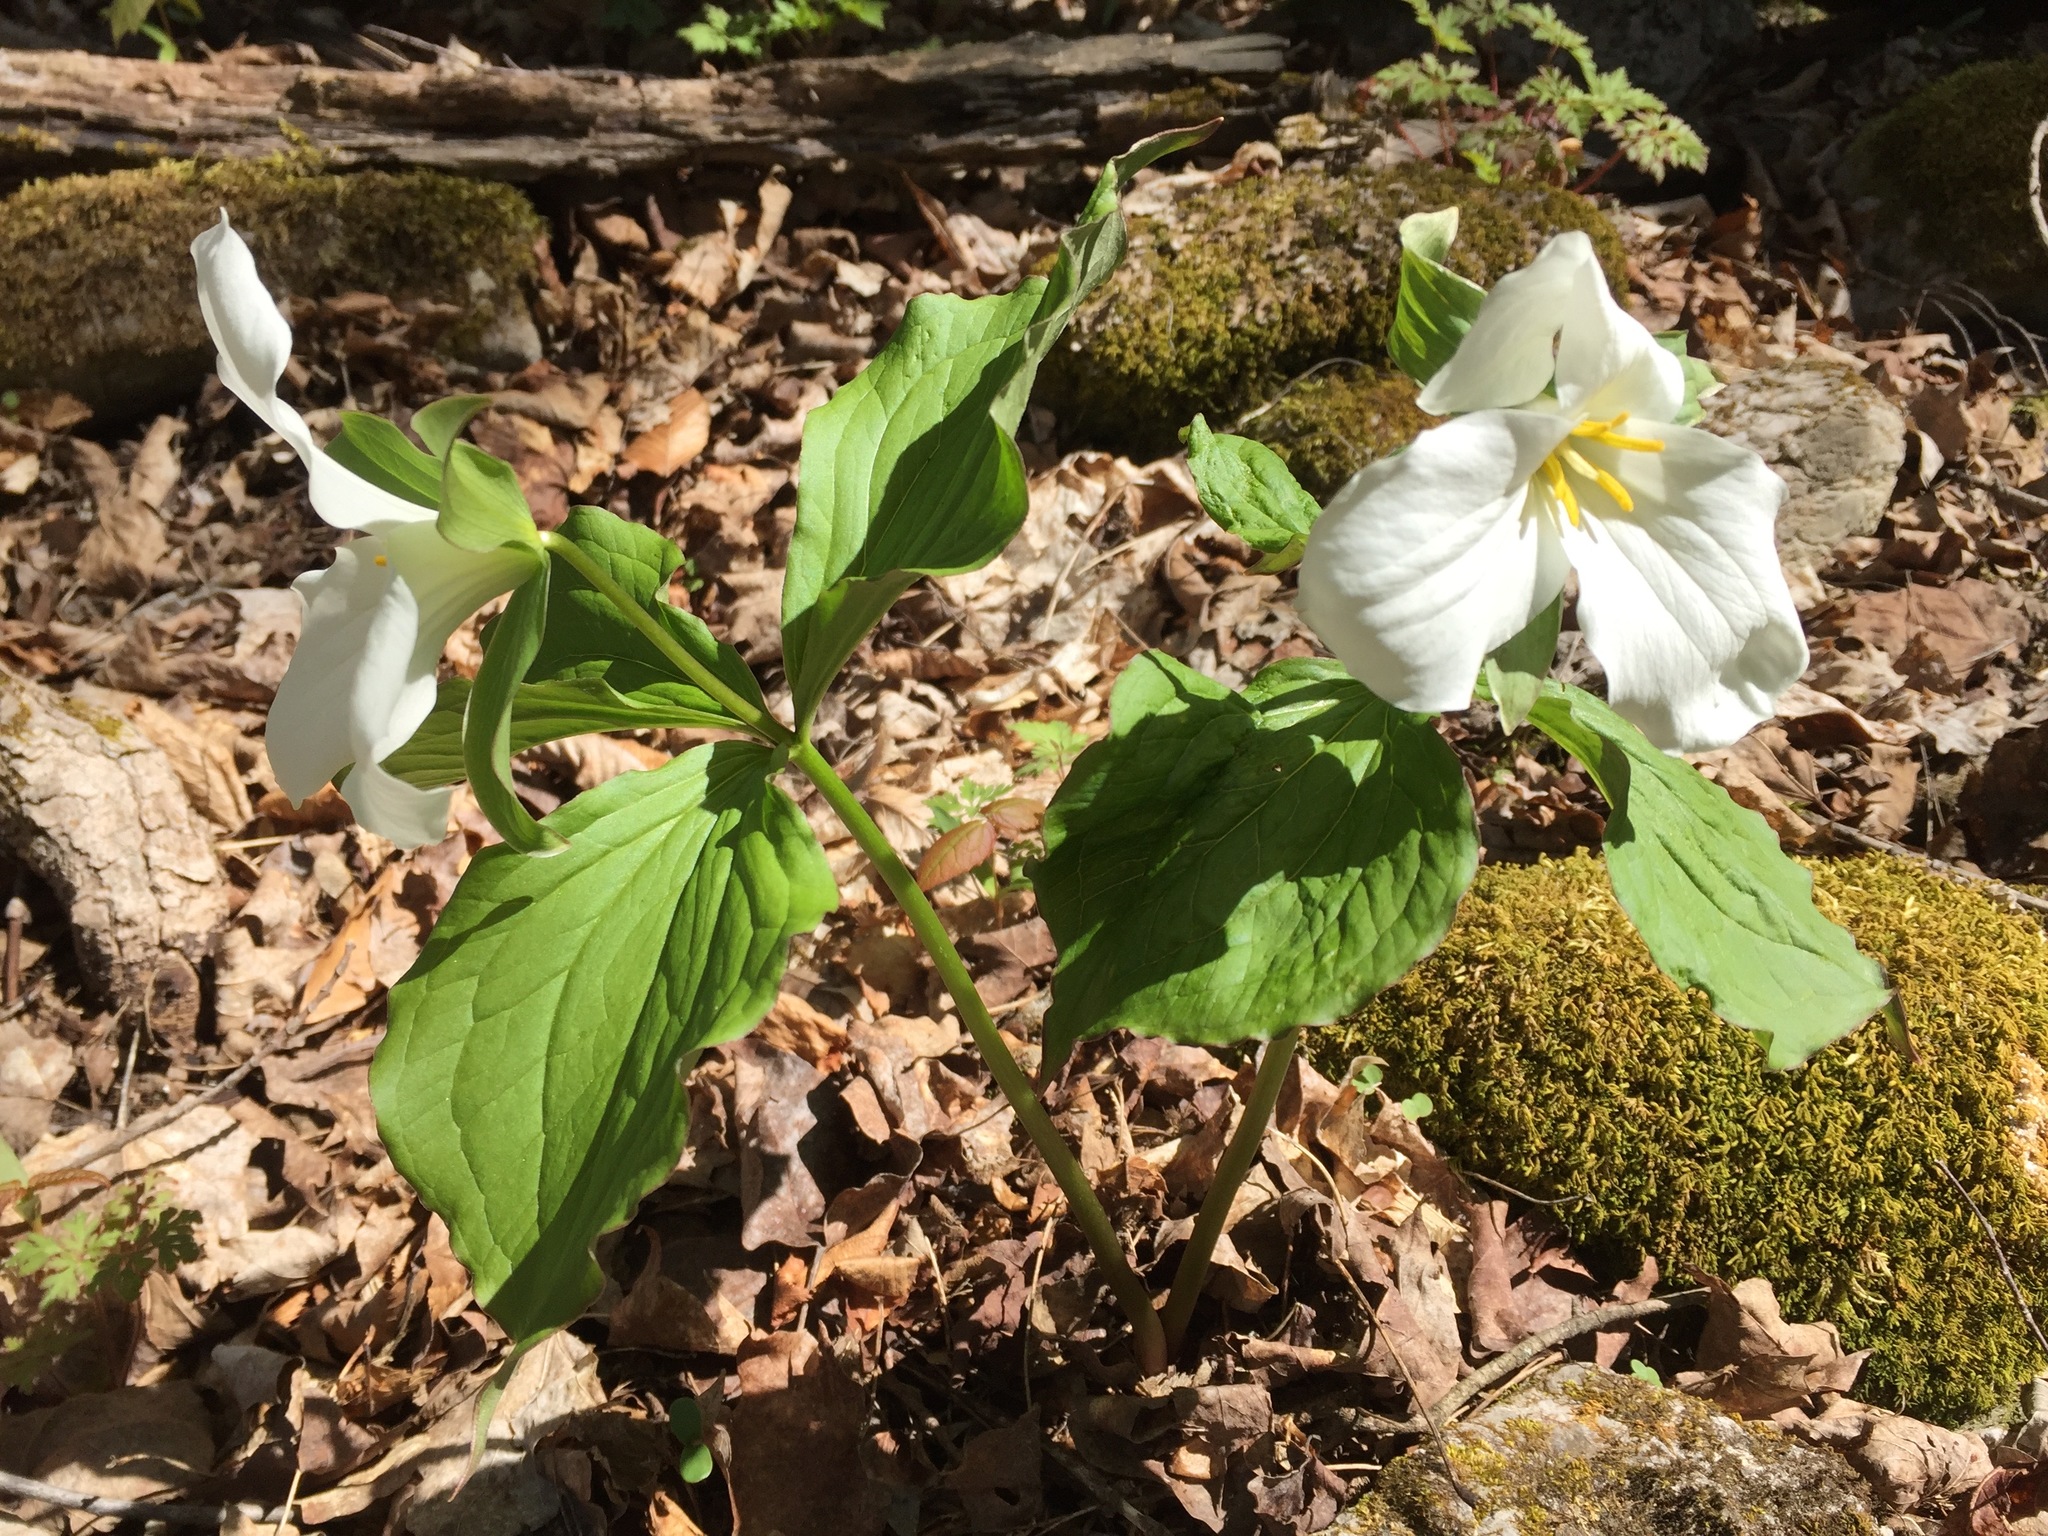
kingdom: Plantae
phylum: Tracheophyta
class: Liliopsida
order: Liliales
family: Melanthiaceae
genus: Trillium
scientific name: Trillium grandiflorum
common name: Great white trillium
